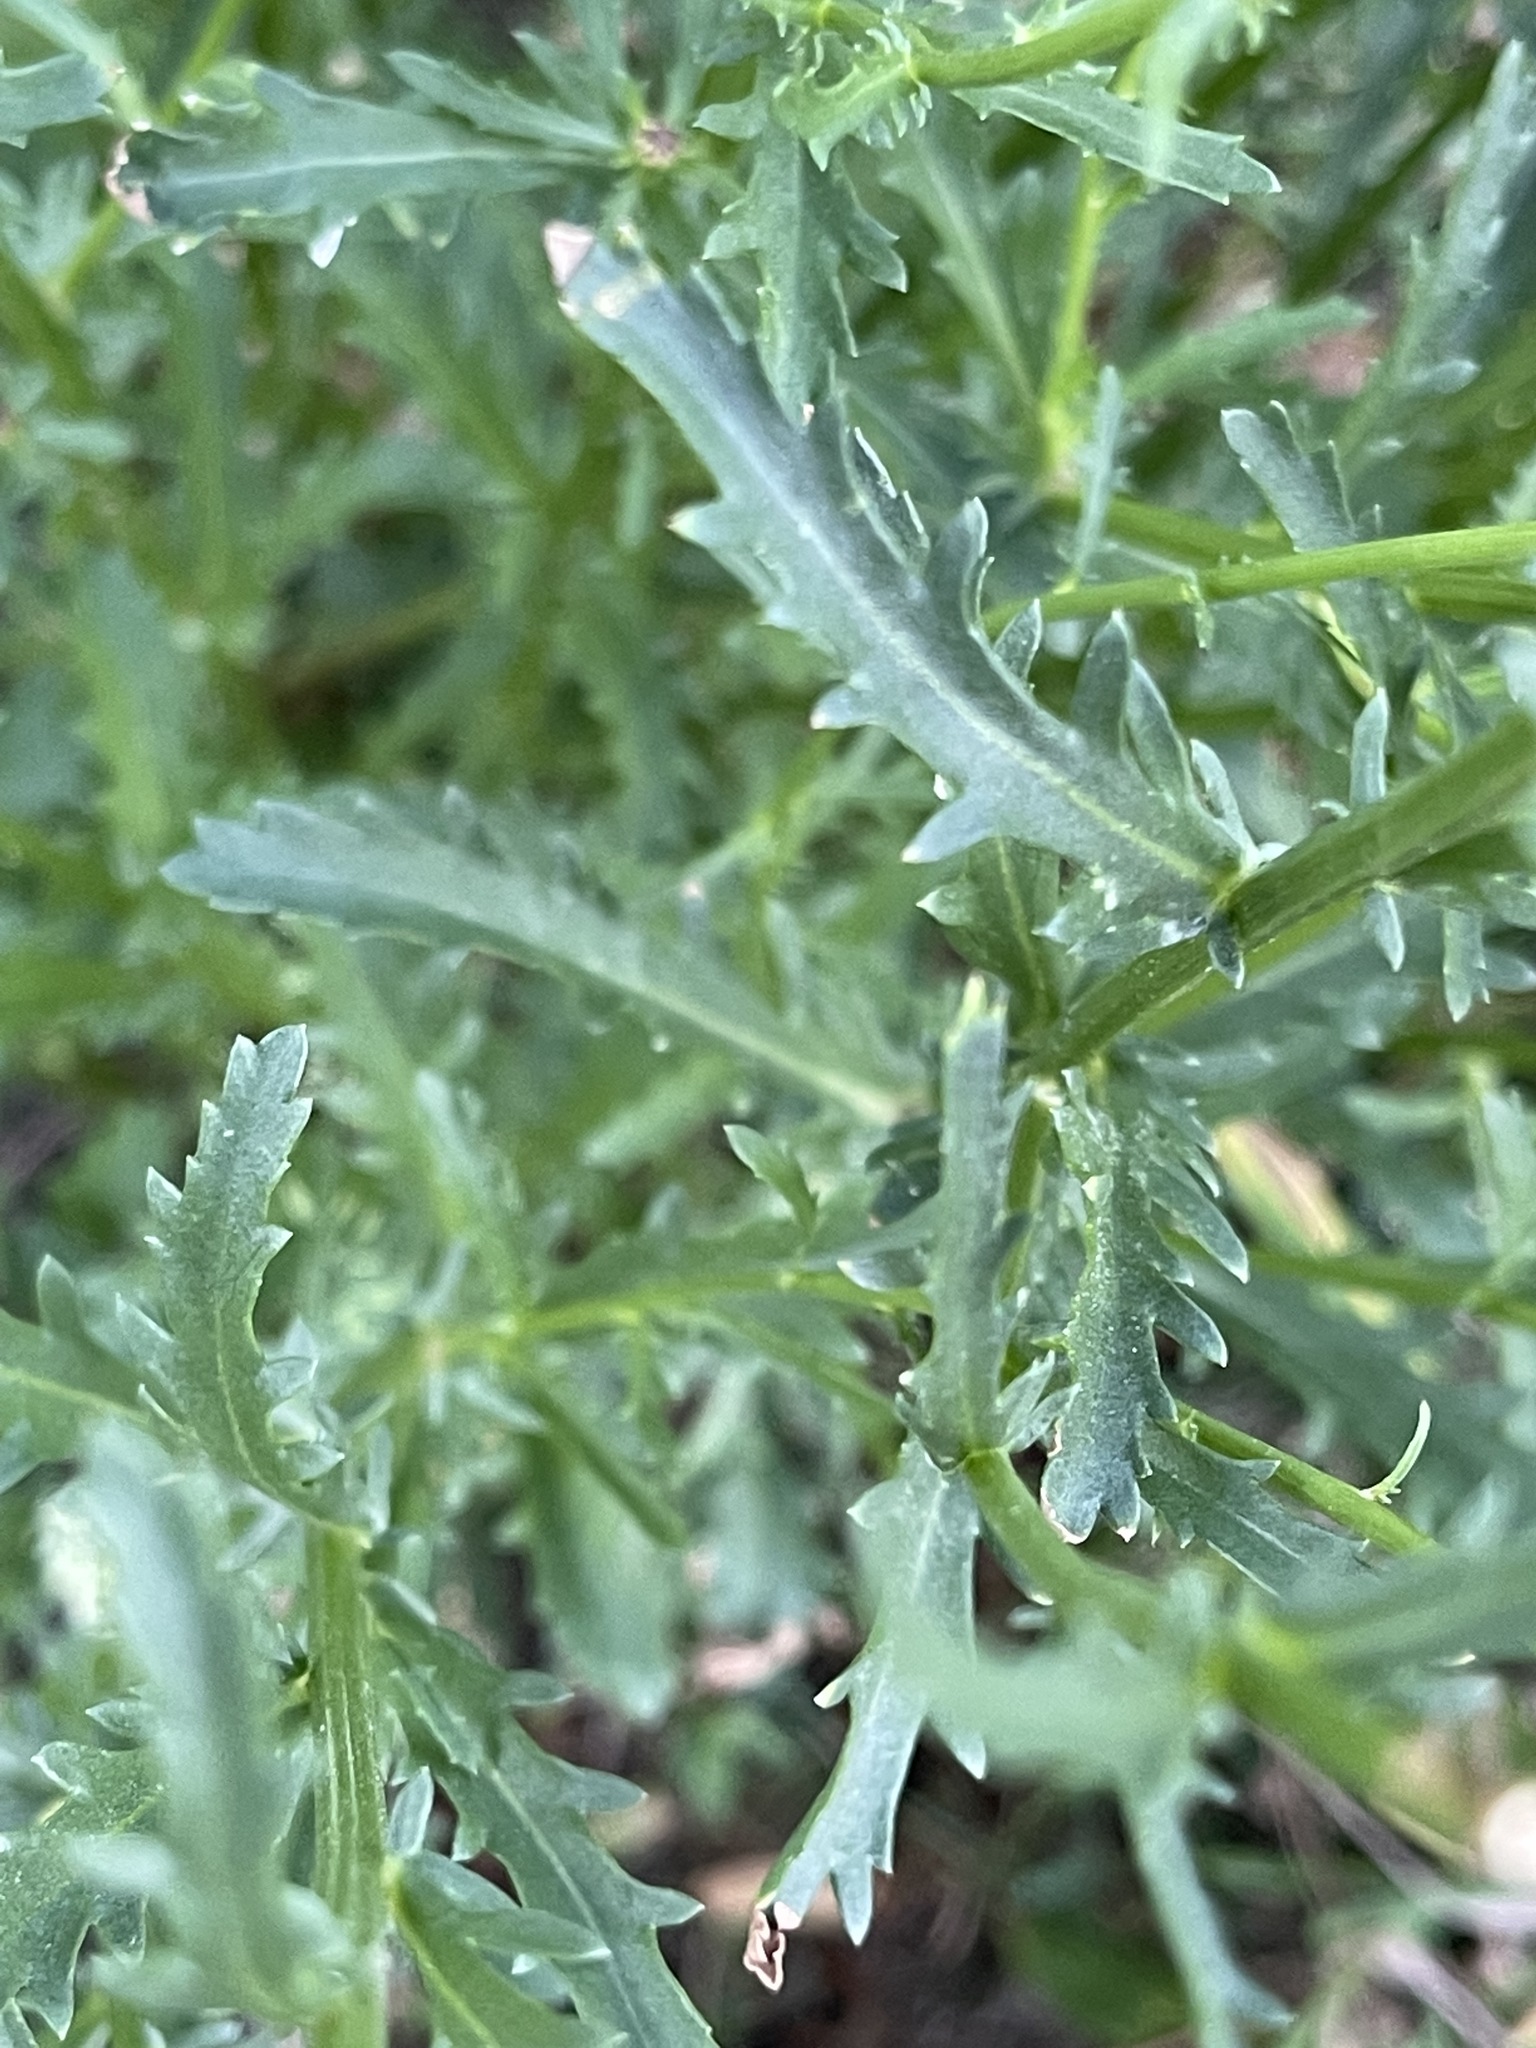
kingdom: Plantae
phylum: Tracheophyta
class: Magnoliopsida
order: Asterales
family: Asteraceae
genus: Leucanthemum
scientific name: Leucanthemum vulgare
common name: Oxeye daisy
